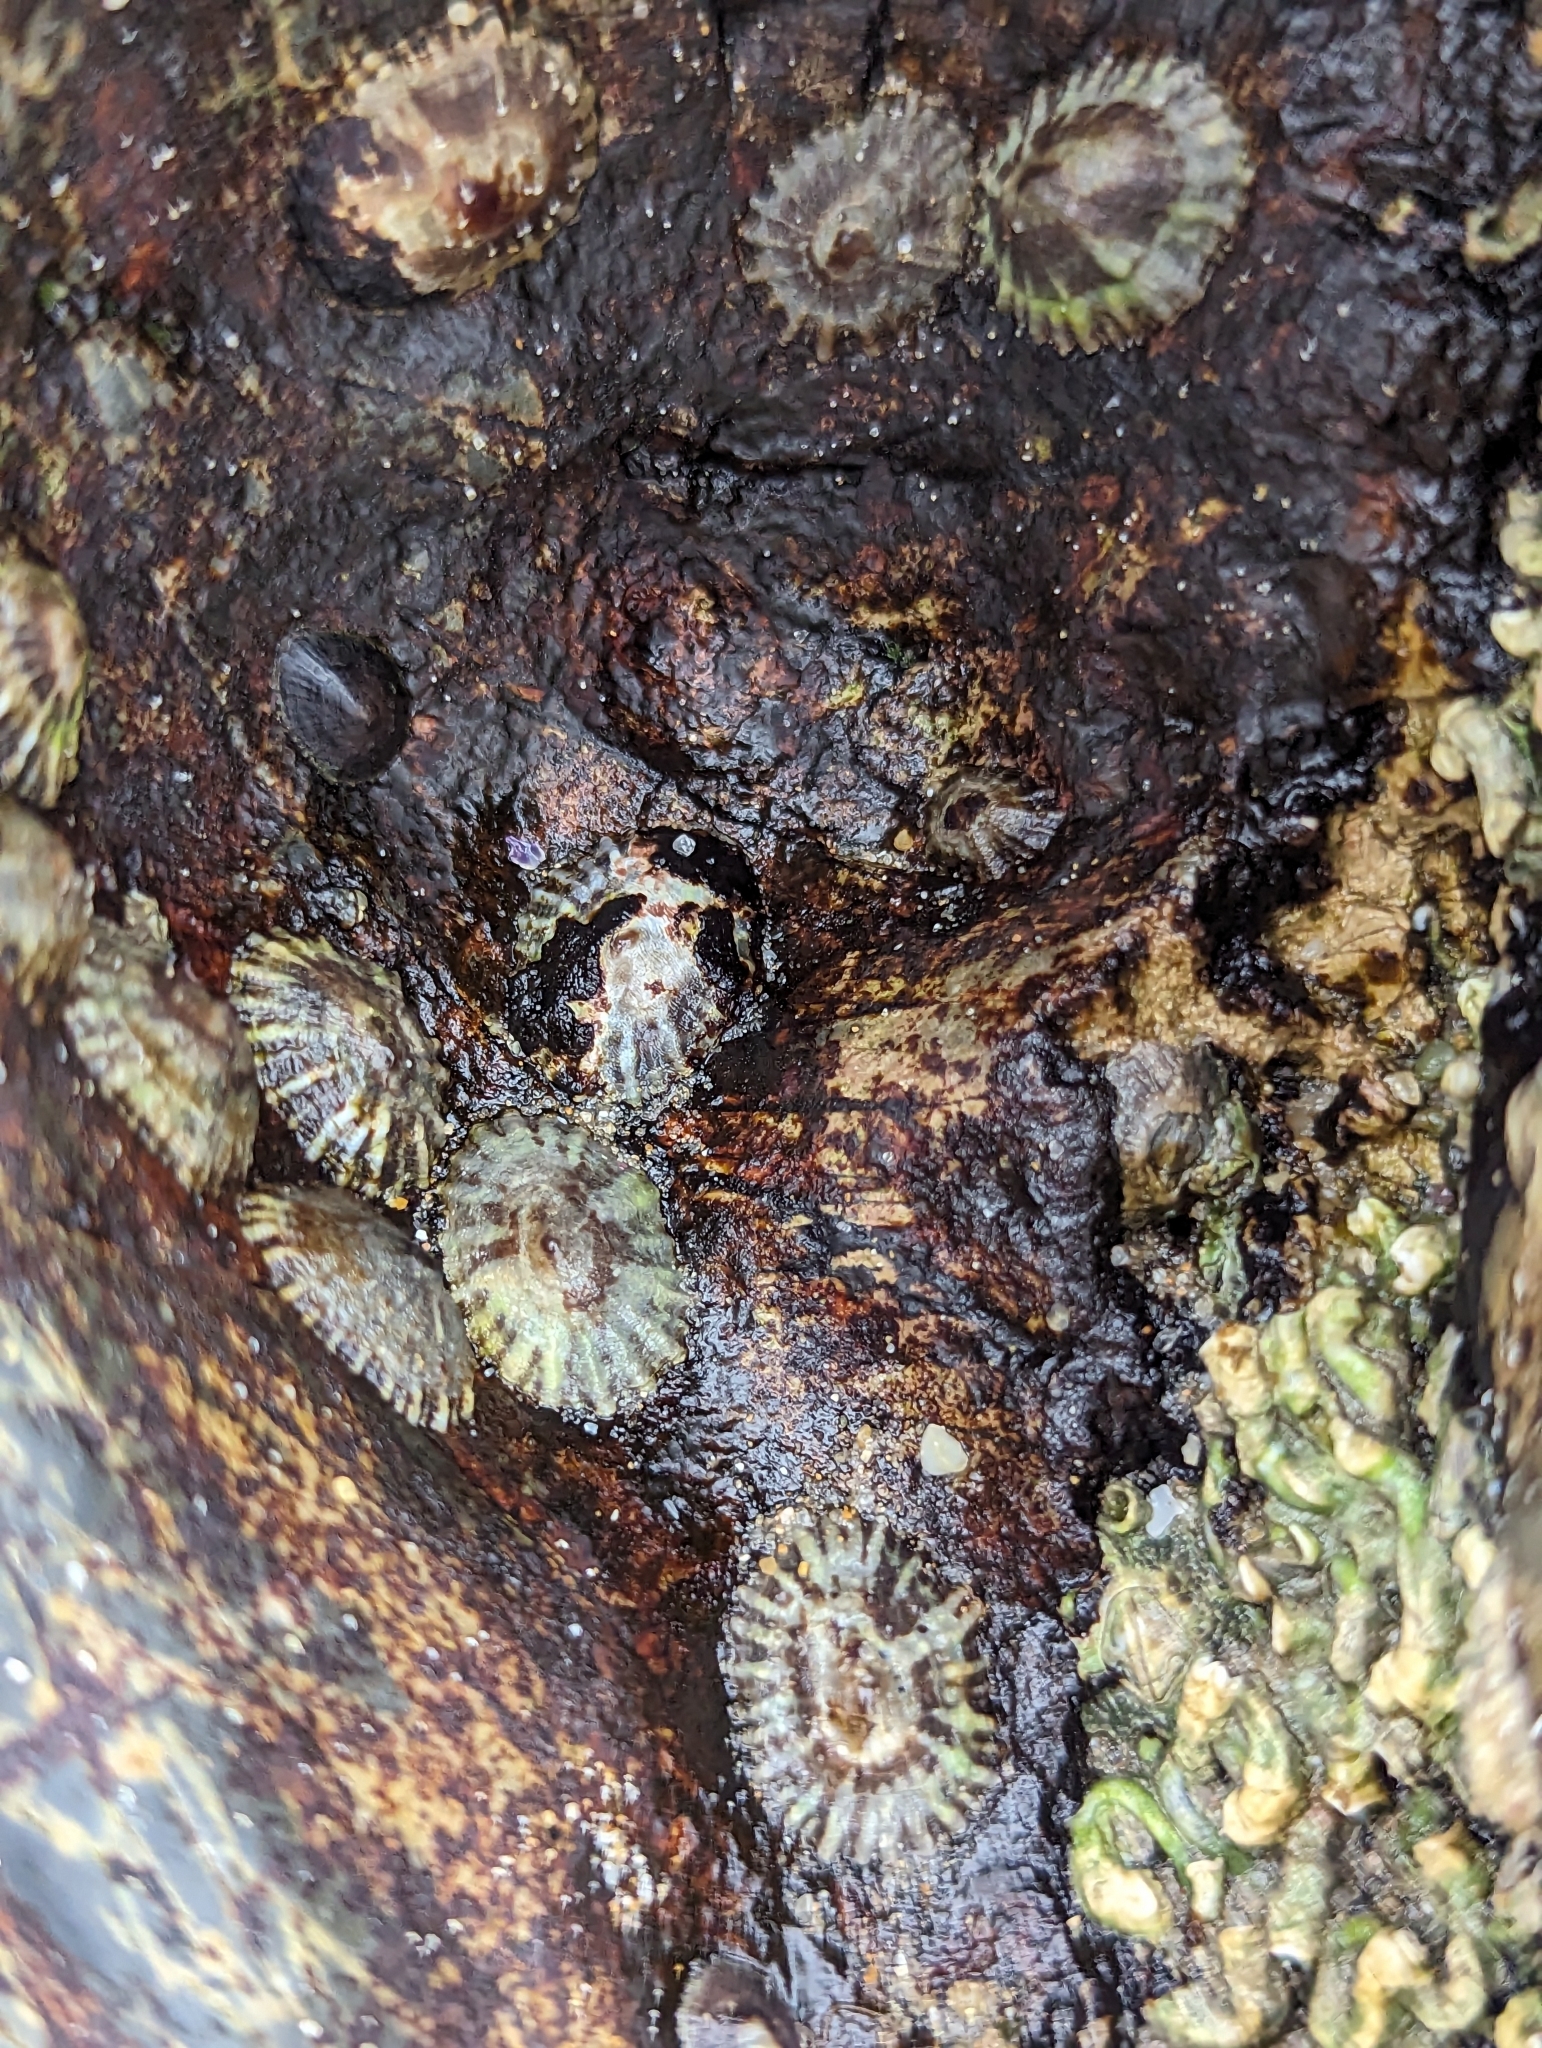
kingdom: Animalia
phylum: Mollusca
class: Gastropoda
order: Siphonariida
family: Siphonariidae
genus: Siphonaria
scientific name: Siphonaria denticulata
